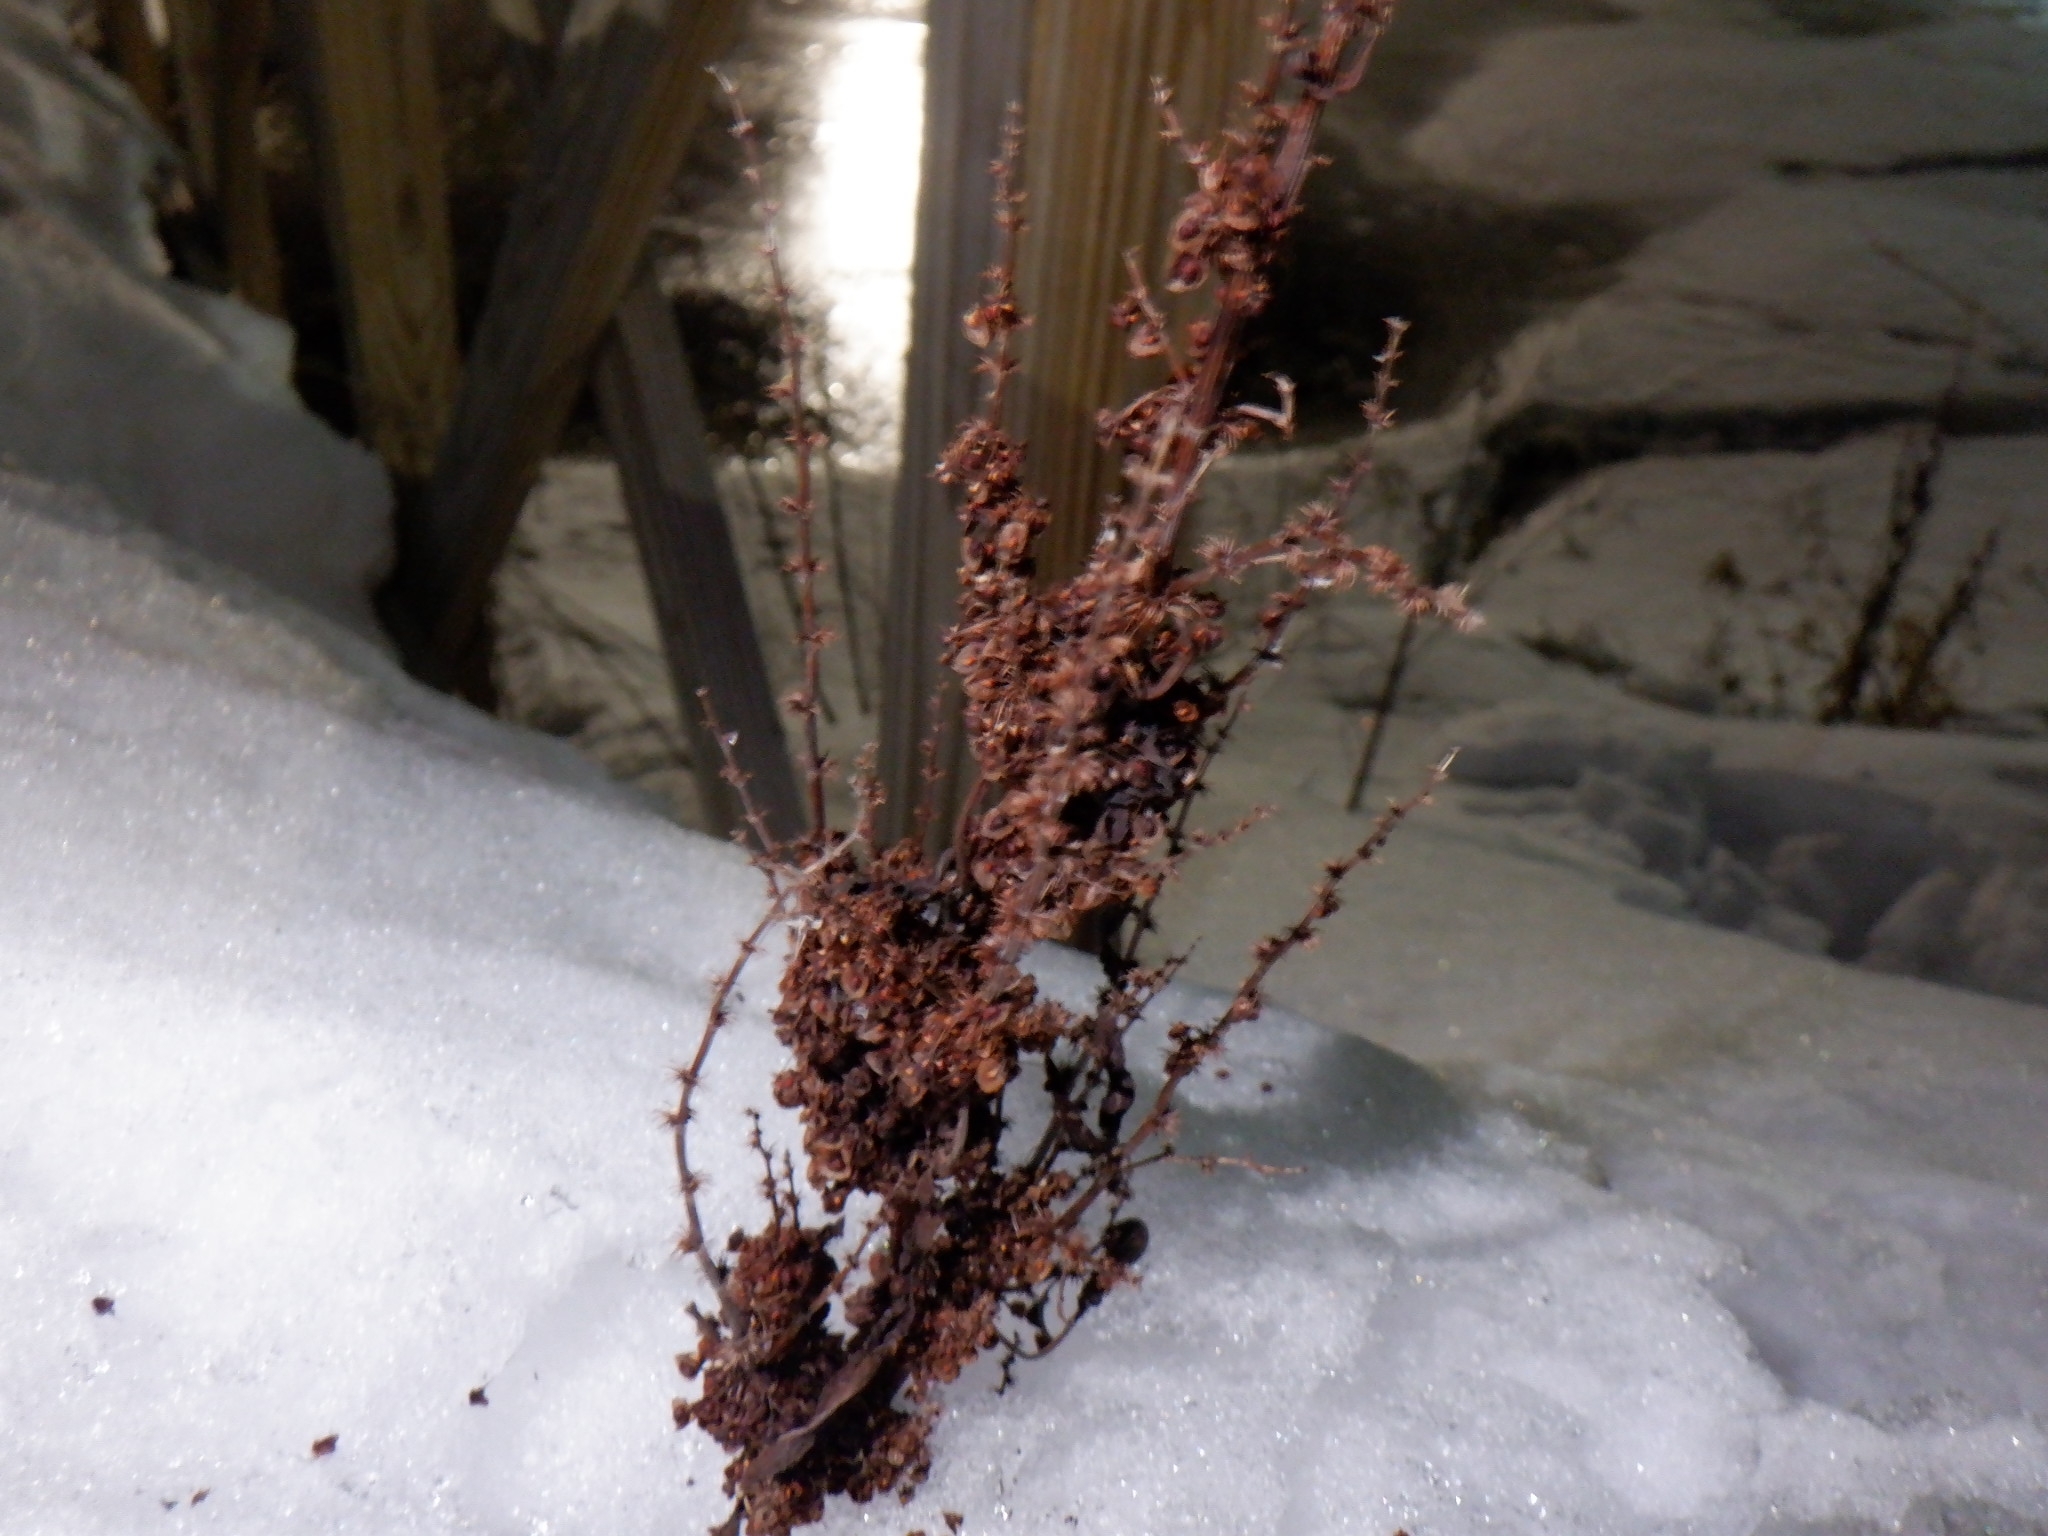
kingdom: Plantae
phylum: Tracheophyta
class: Magnoliopsida
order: Caryophyllales
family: Polygonaceae
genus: Rumex
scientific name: Rumex crispus
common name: Curled dock
